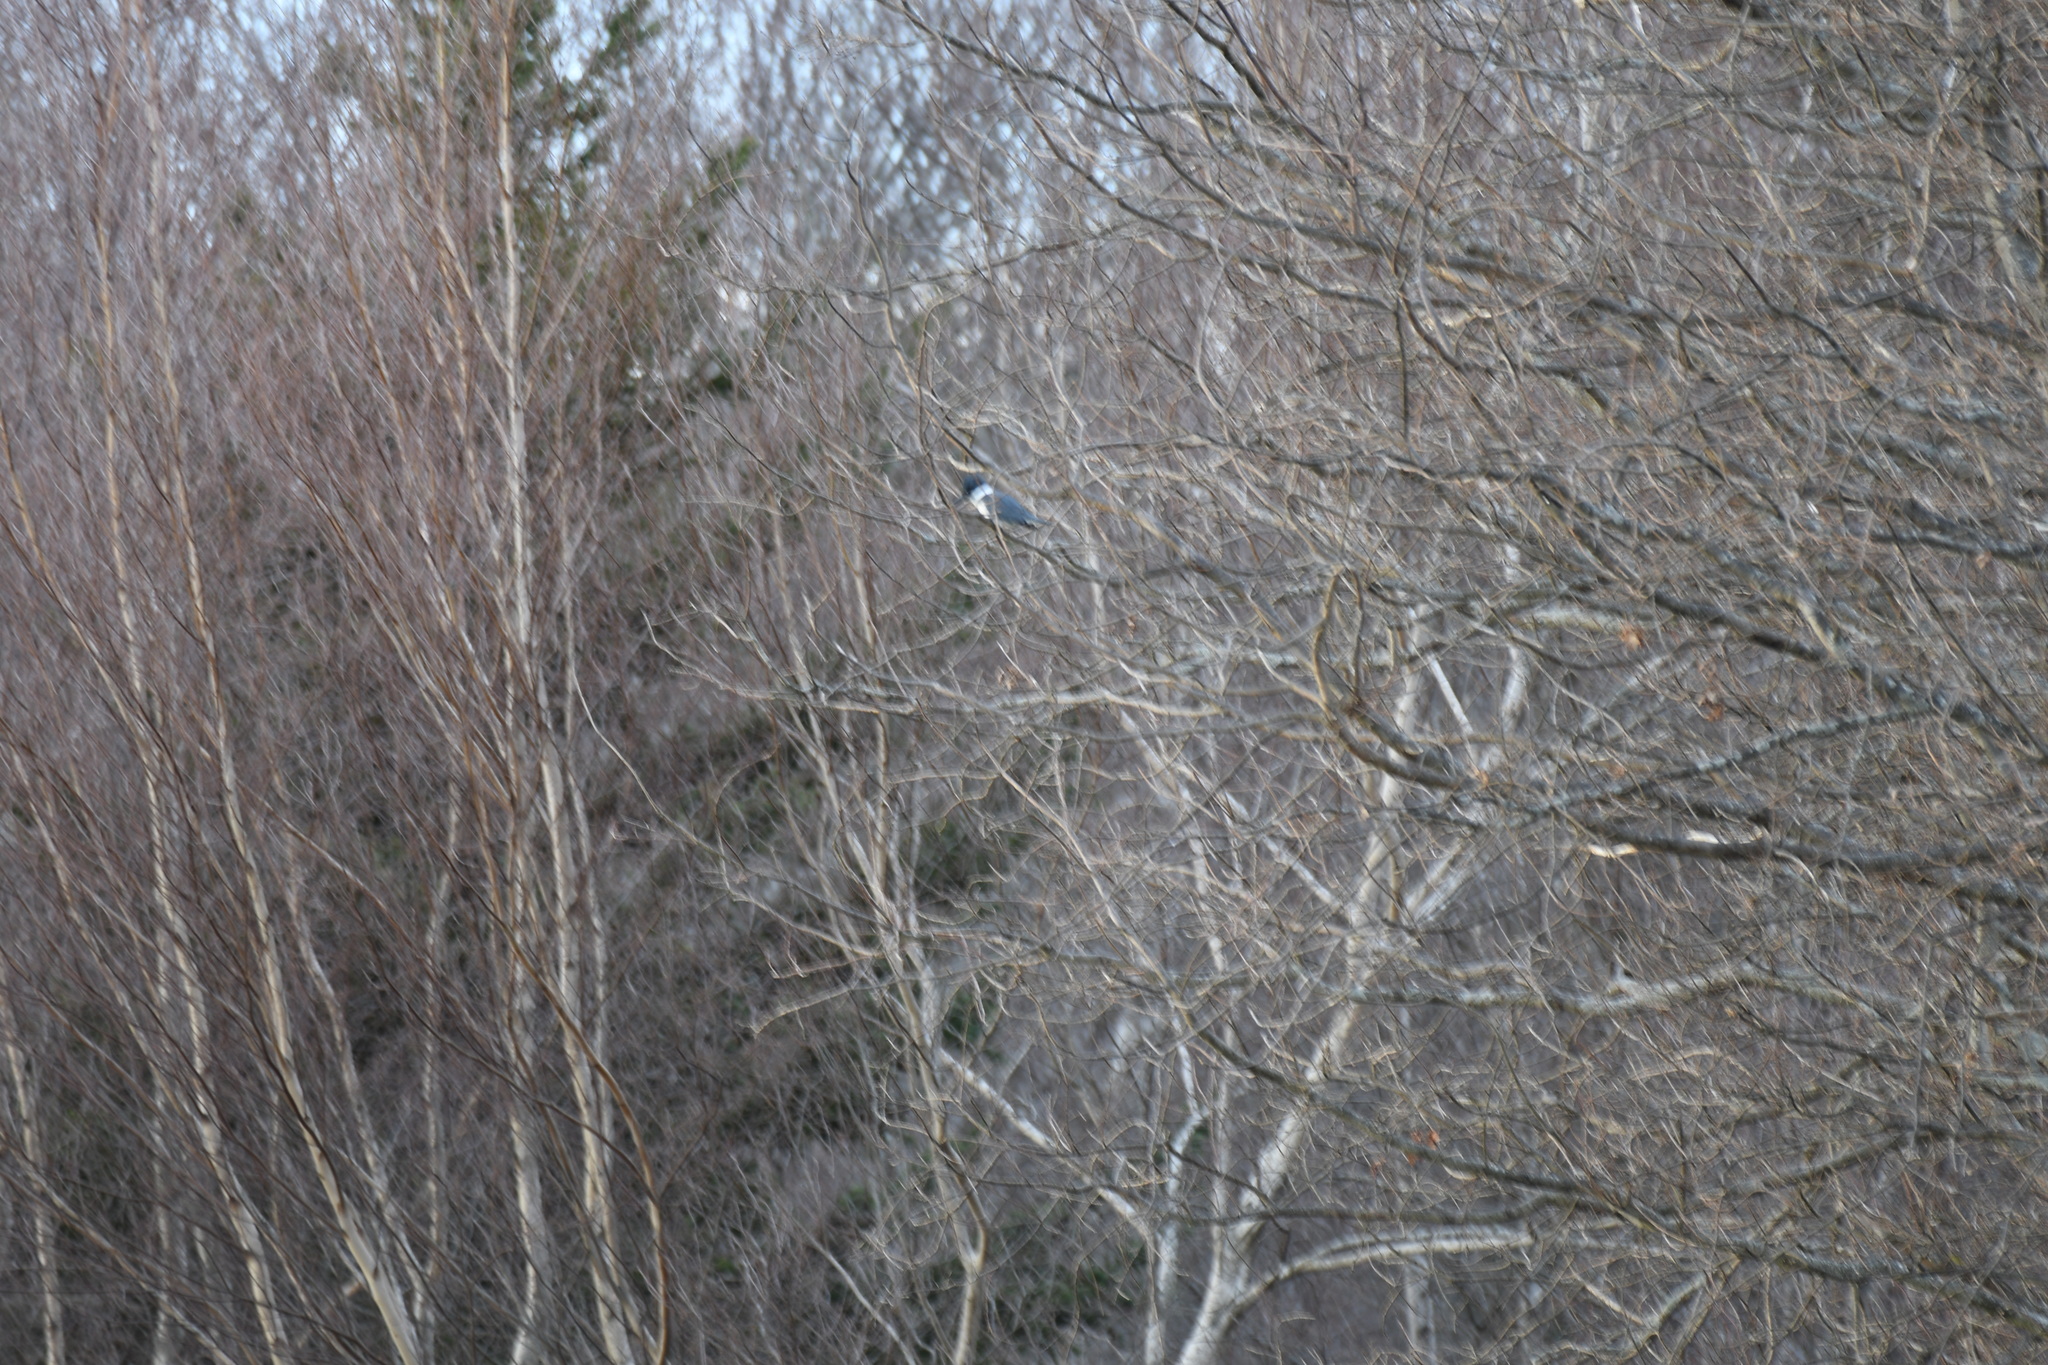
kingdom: Animalia
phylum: Chordata
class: Aves
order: Coraciiformes
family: Alcedinidae
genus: Megaceryle
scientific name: Megaceryle alcyon
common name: Belted kingfisher
